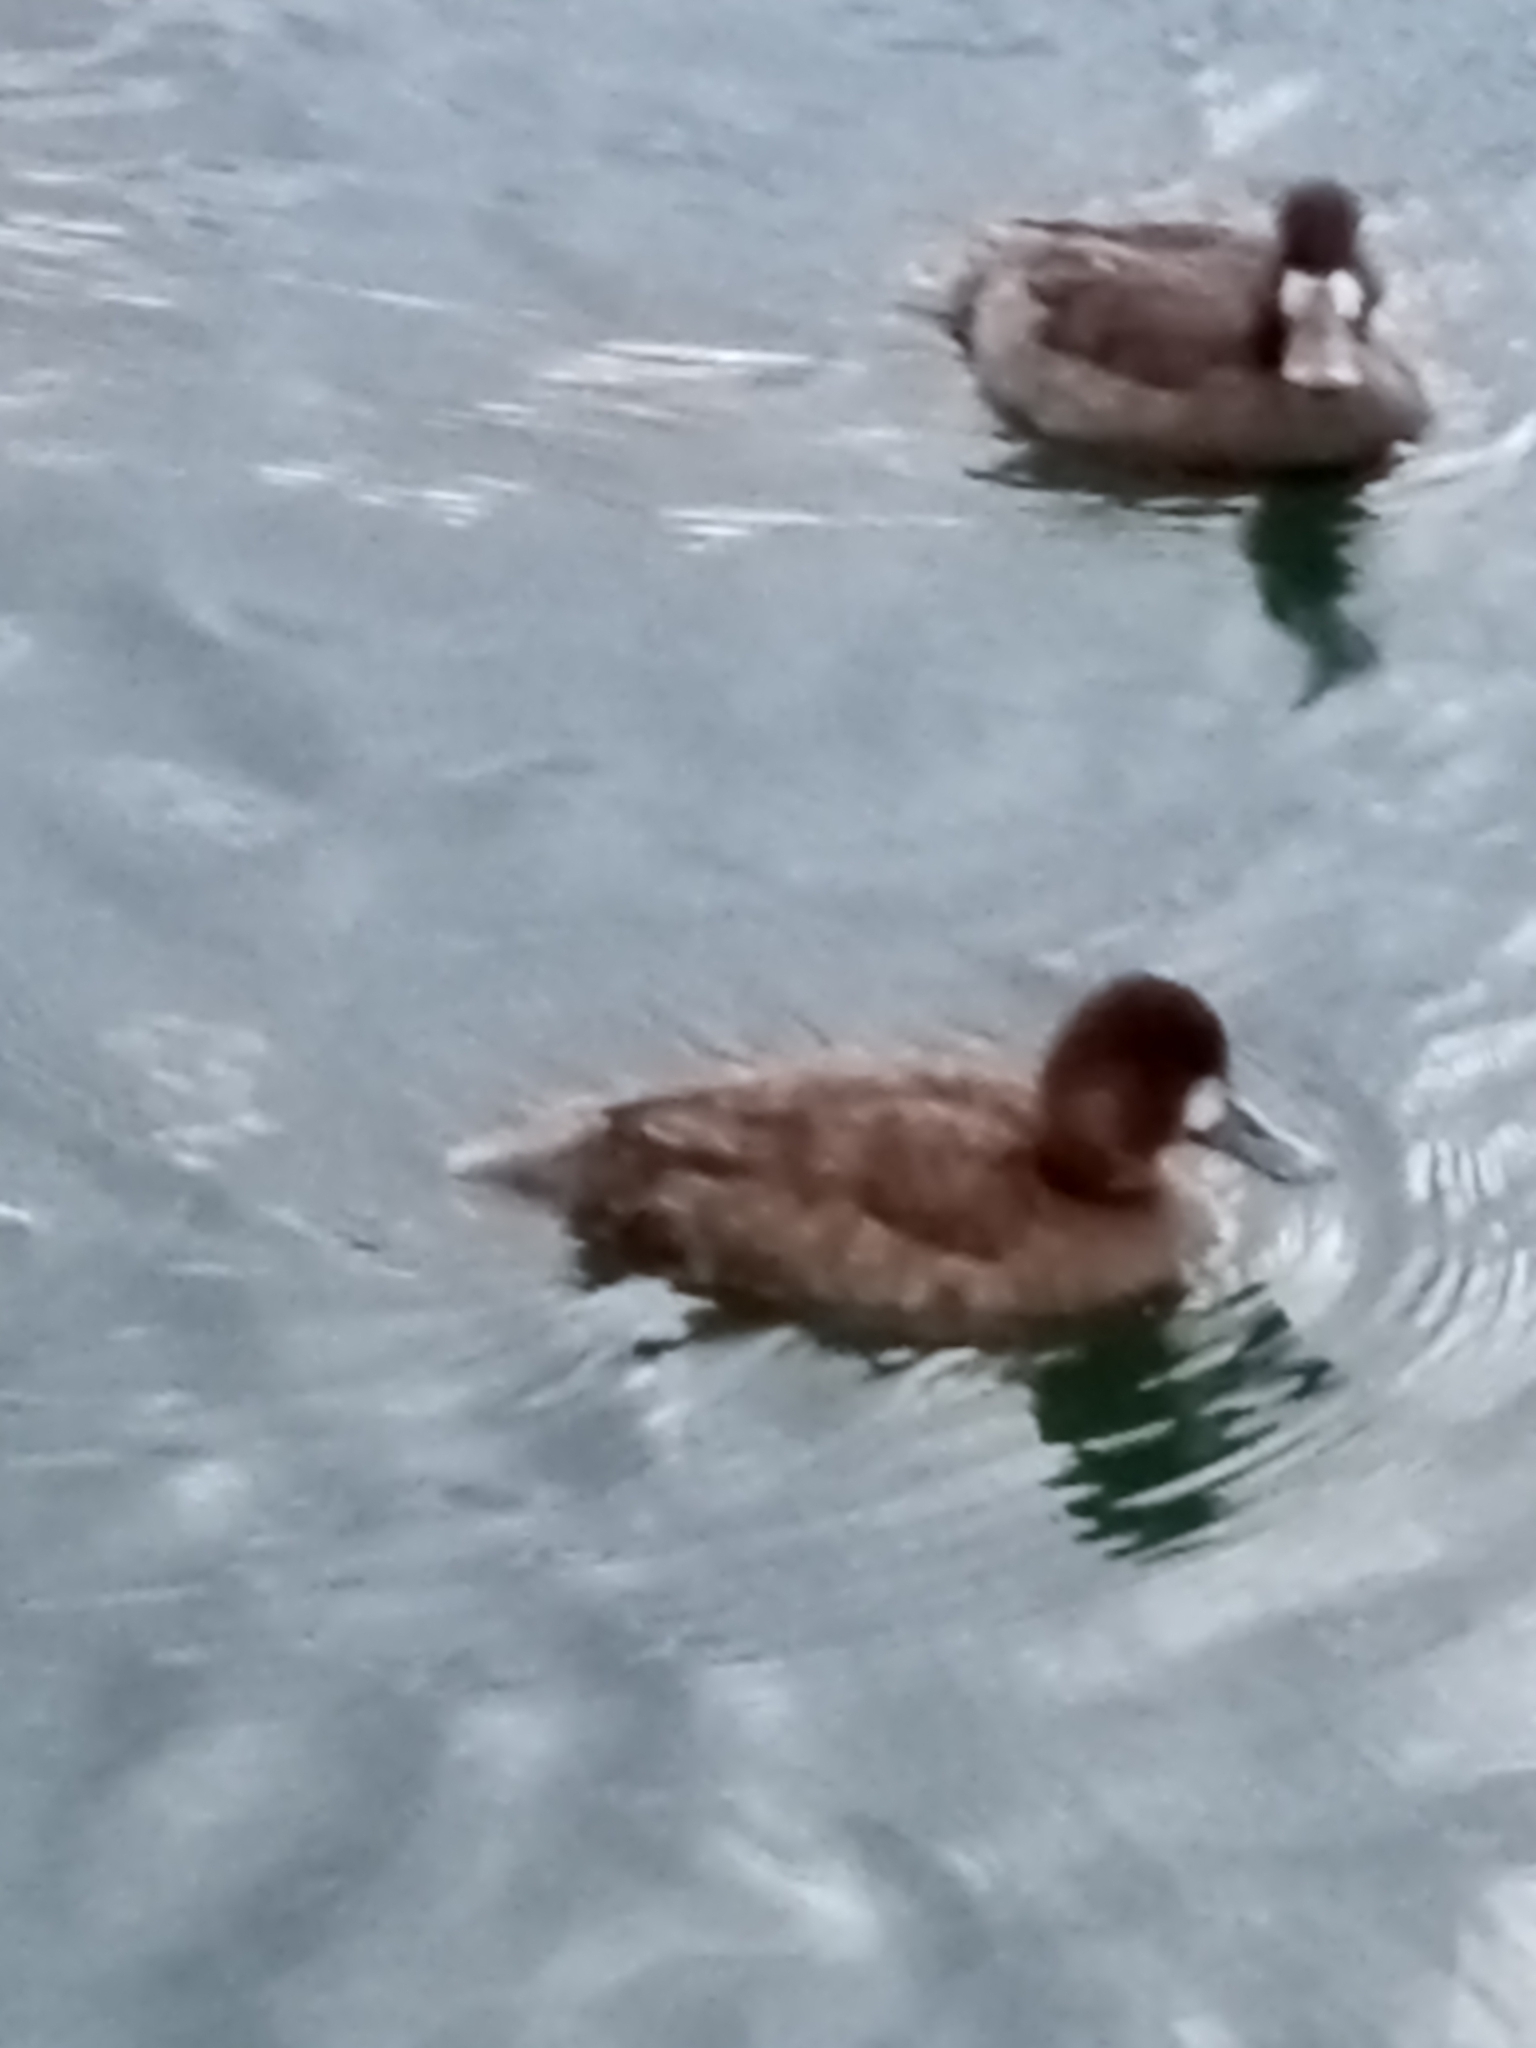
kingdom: Animalia
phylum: Chordata
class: Aves
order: Anseriformes
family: Anatidae
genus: Aythya
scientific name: Aythya affinis
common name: Lesser scaup
